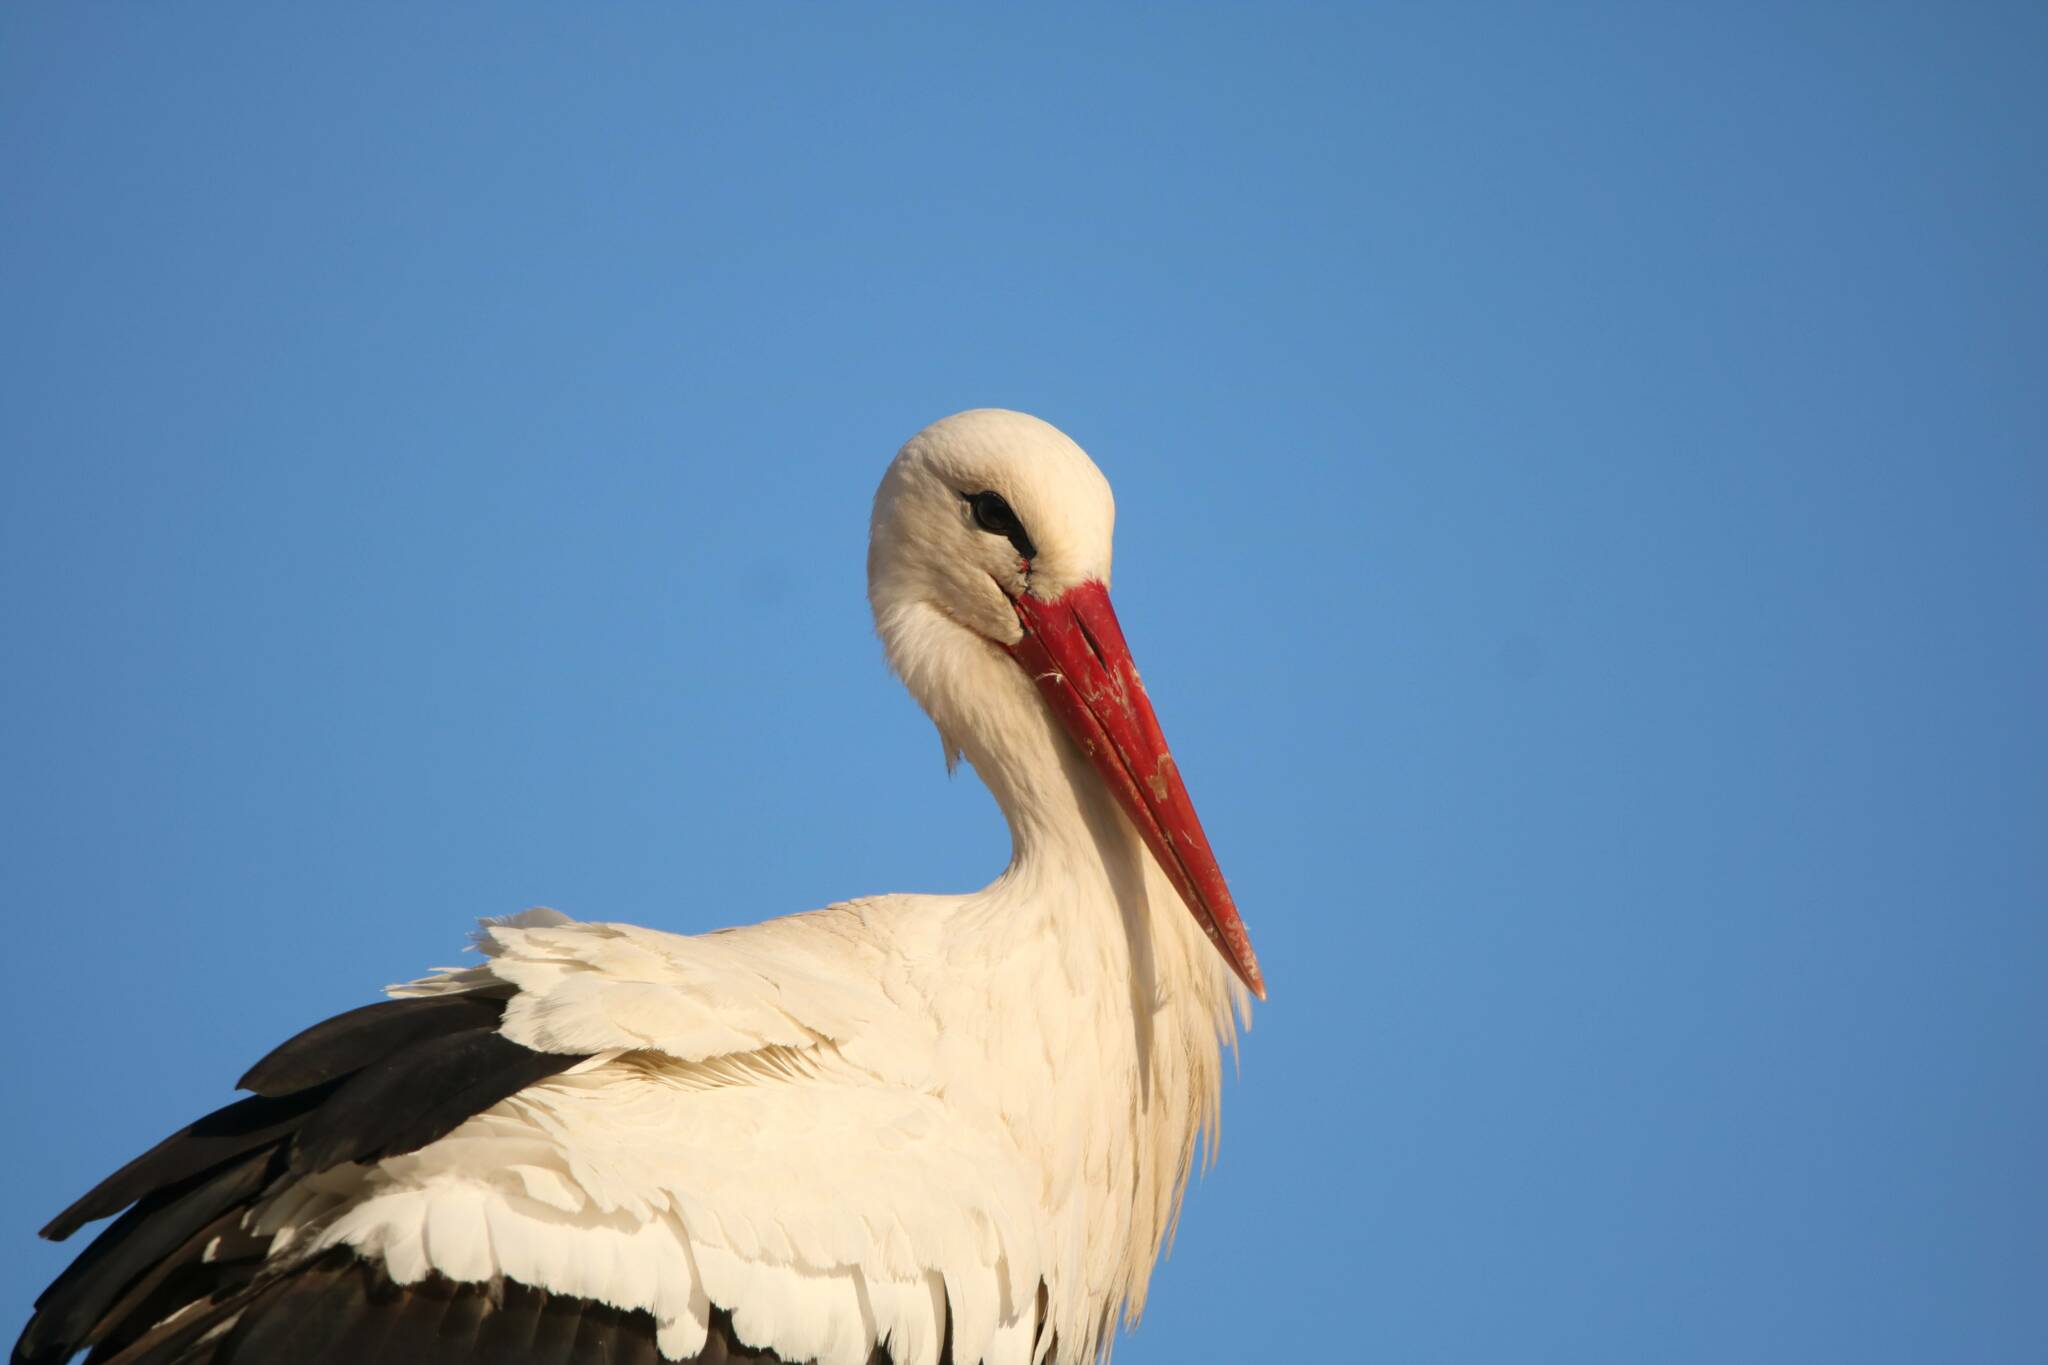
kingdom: Animalia
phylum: Chordata
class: Aves
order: Ciconiiformes
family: Ciconiidae
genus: Ciconia
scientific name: Ciconia ciconia
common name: White stork
